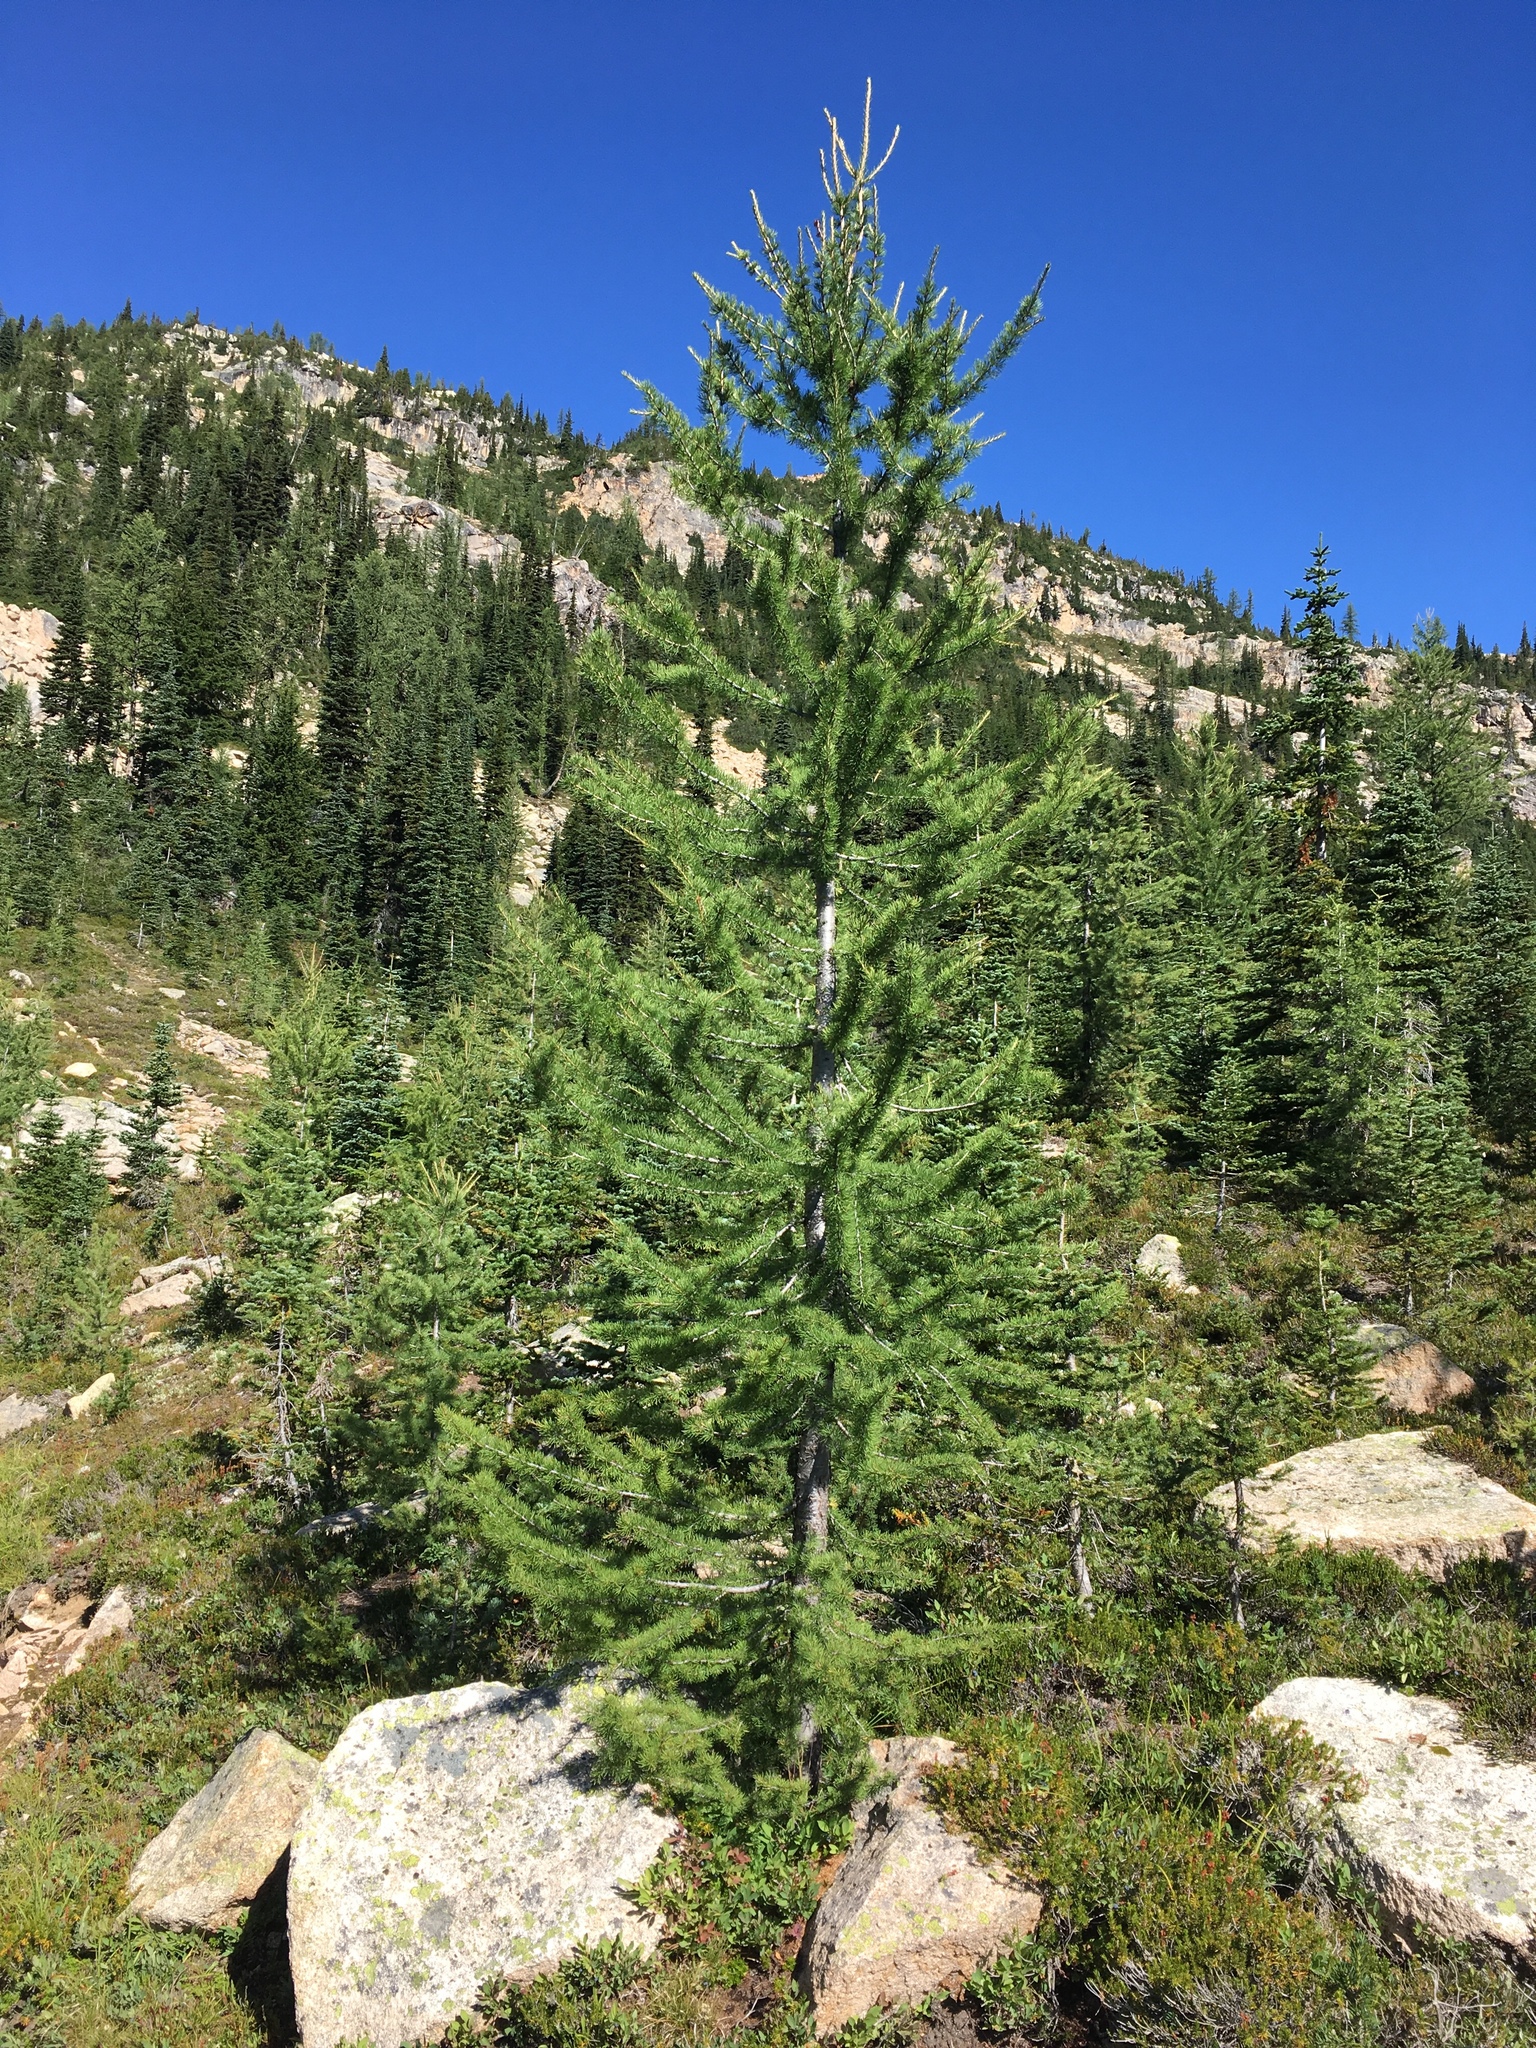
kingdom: Plantae
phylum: Tracheophyta
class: Pinopsida
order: Pinales
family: Pinaceae
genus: Larix
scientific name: Larix lyallii
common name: Alpine larch
